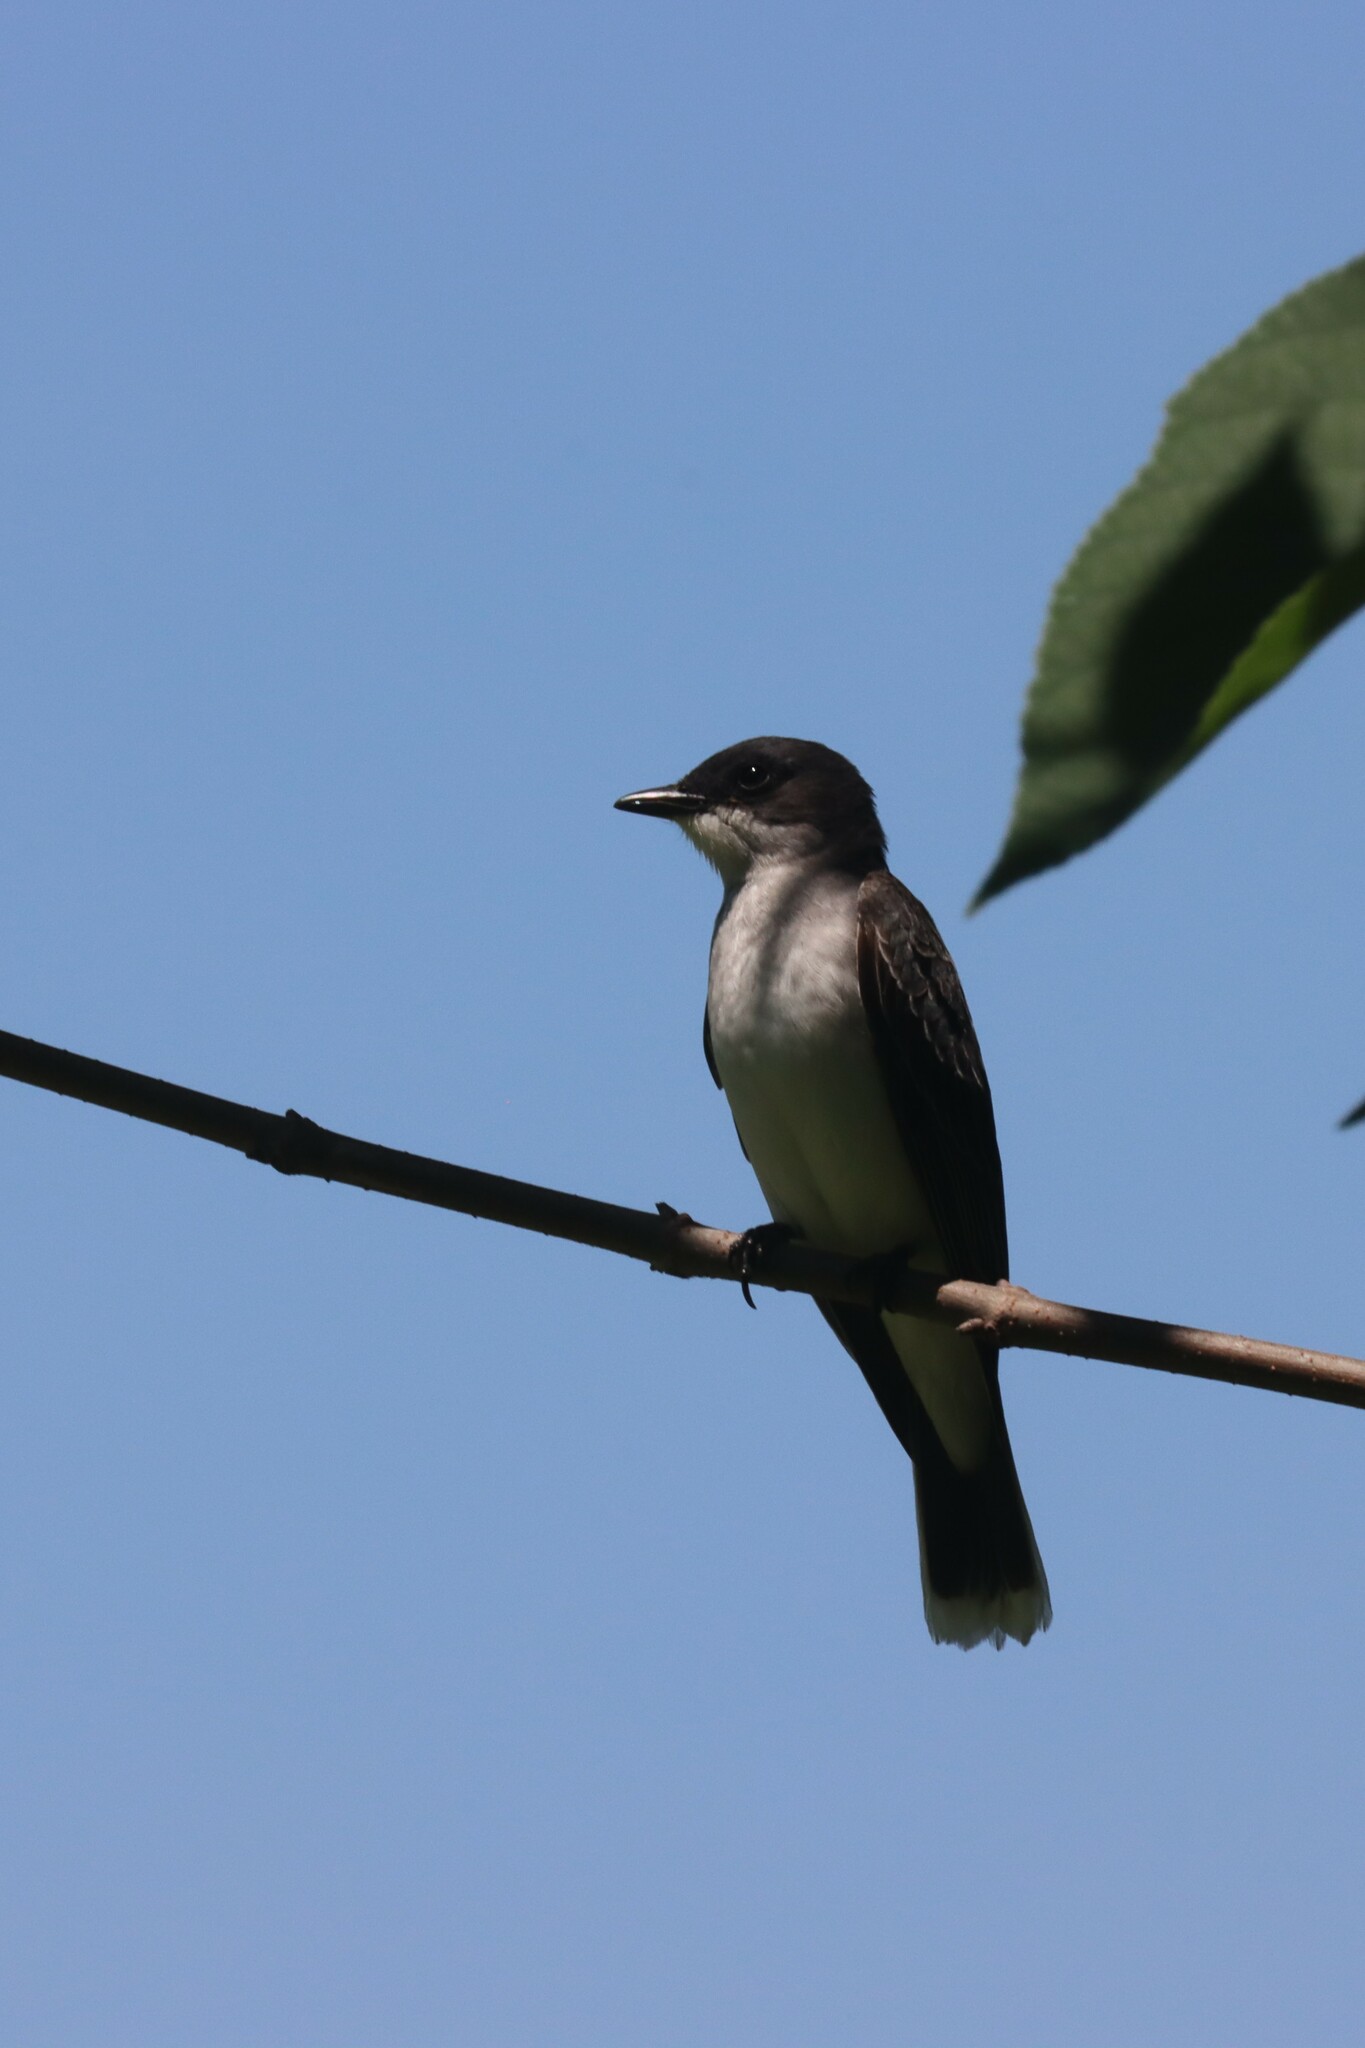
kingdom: Animalia
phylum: Chordata
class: Aves
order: Passeriformes
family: Tyrannidae
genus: Tyrannus
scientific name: Tyrannus tyrannus
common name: Eastern kingbird
